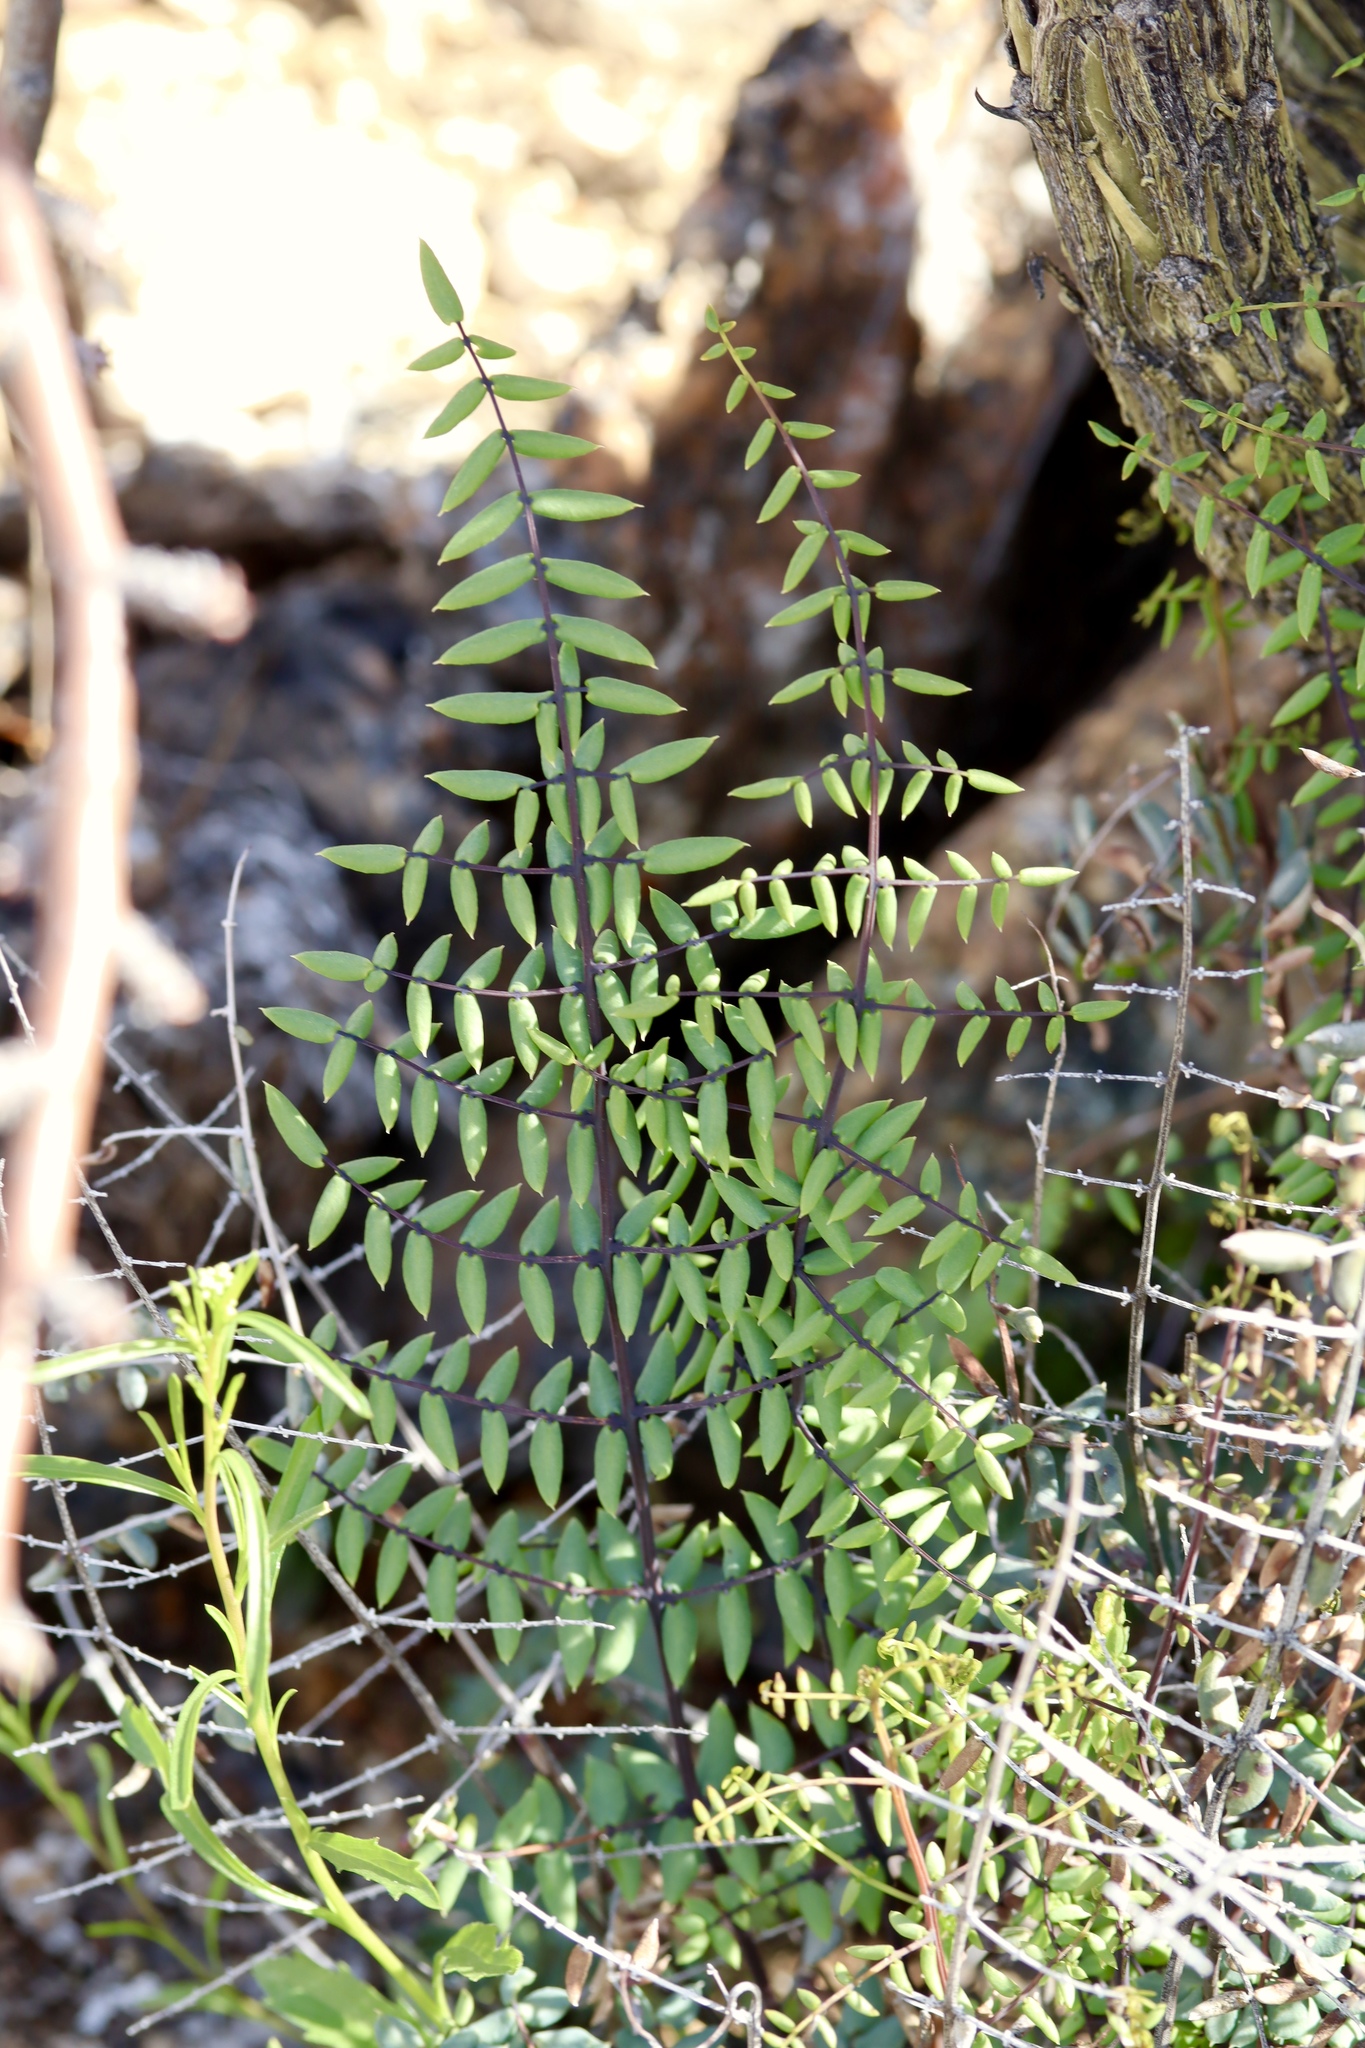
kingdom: Plantae
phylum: Tracheophyta
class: Polypodiopsida
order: Polypodiales
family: Pteridaceae
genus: Pellaea
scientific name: Pellaea truncata
